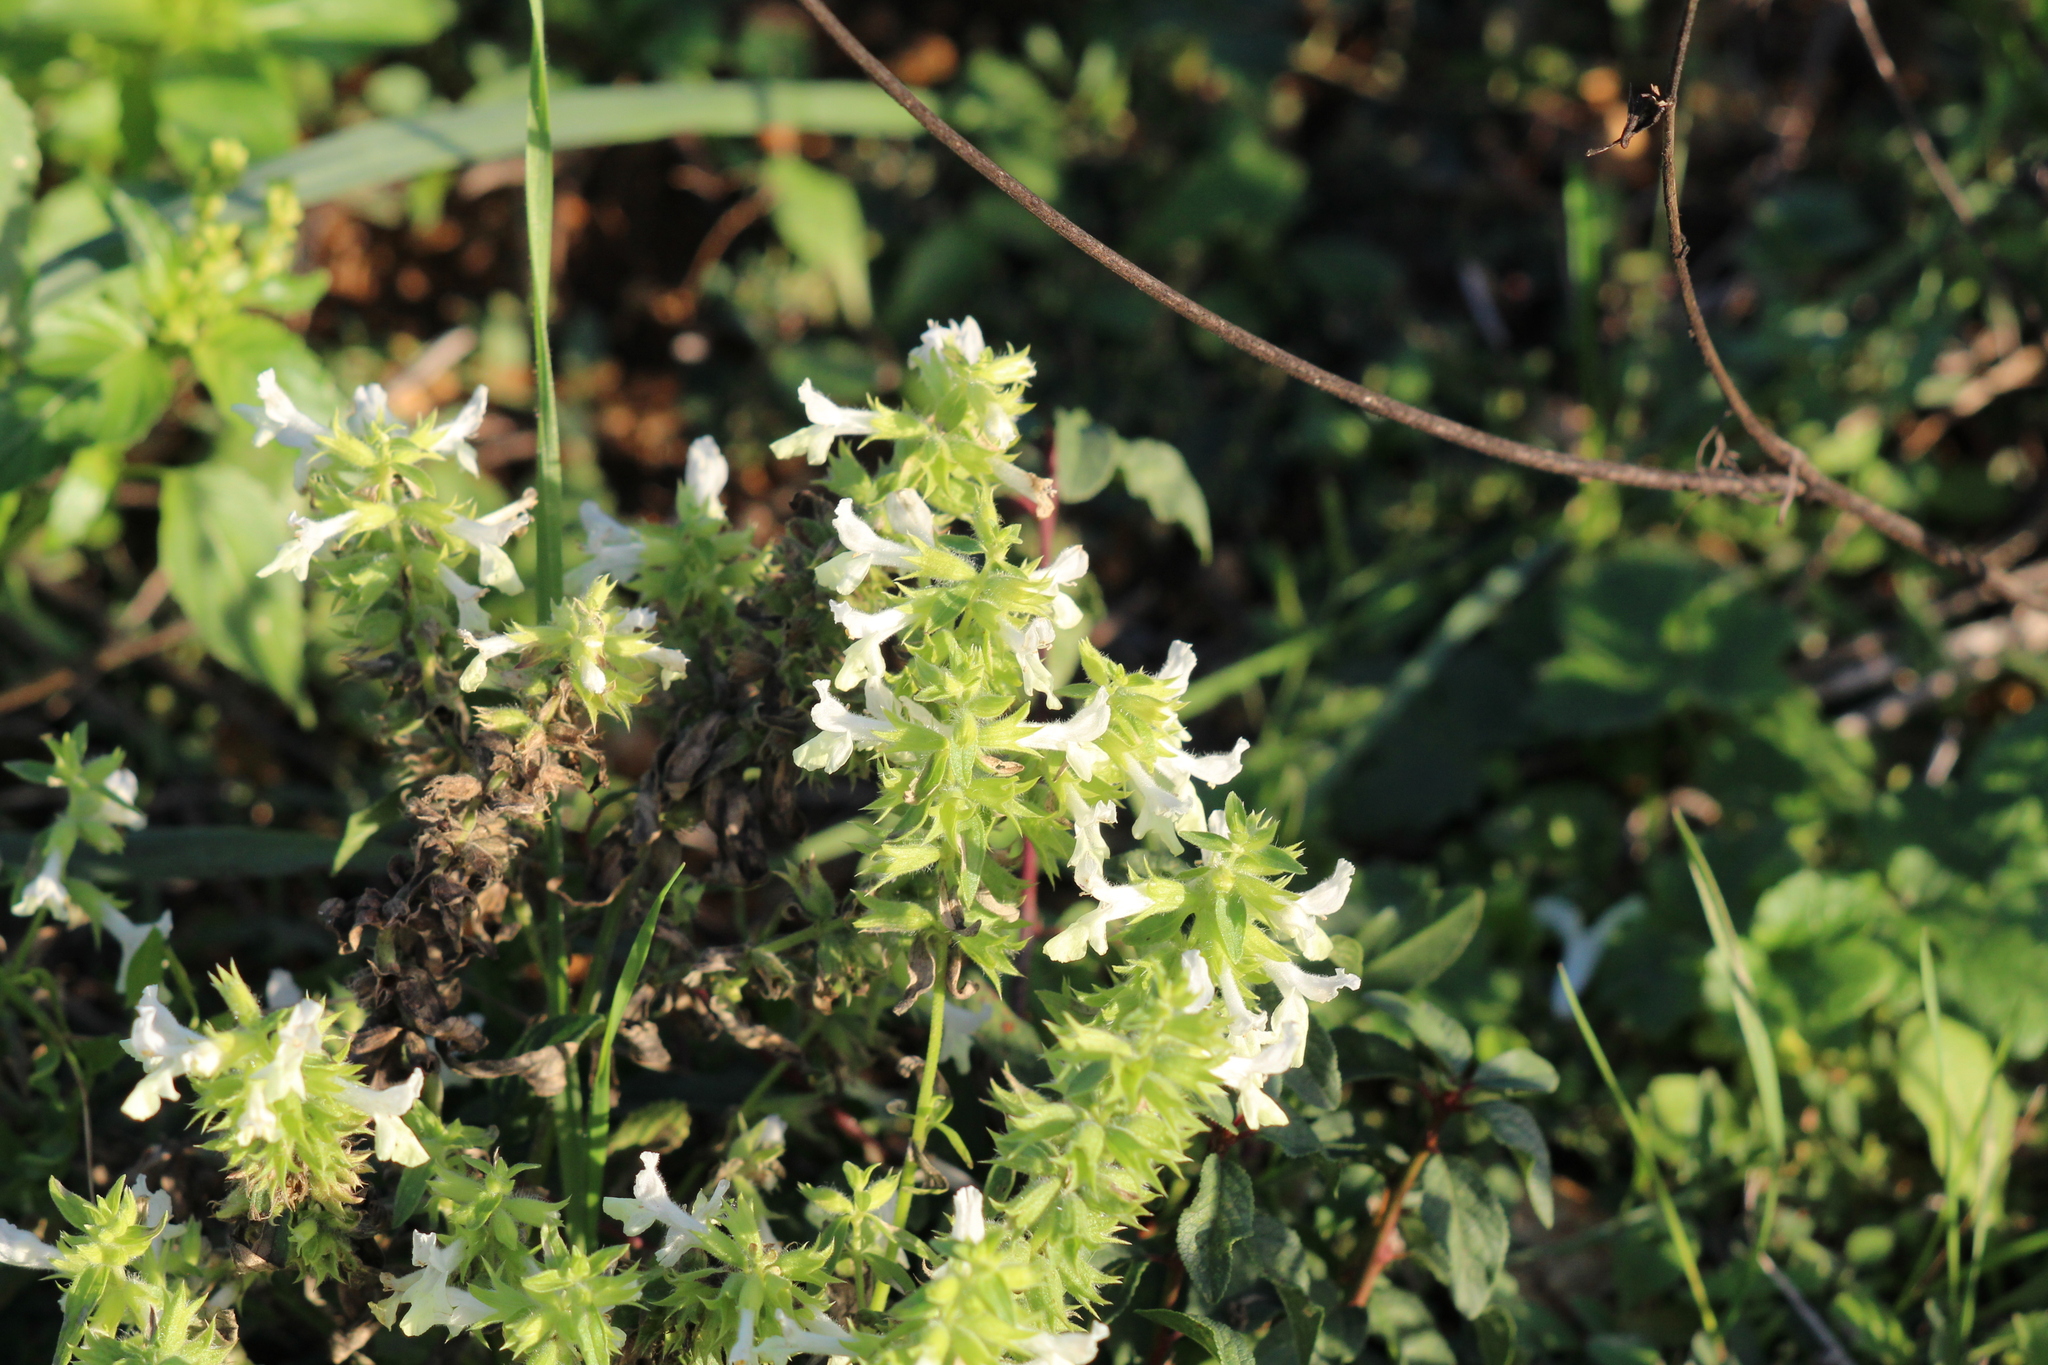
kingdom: Plantae
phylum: Tracheophyta
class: Magnoliopsida
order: Lamiales
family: Lamiaceae
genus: Stachys
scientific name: Stachys annua
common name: Annual yellow-woundwort
